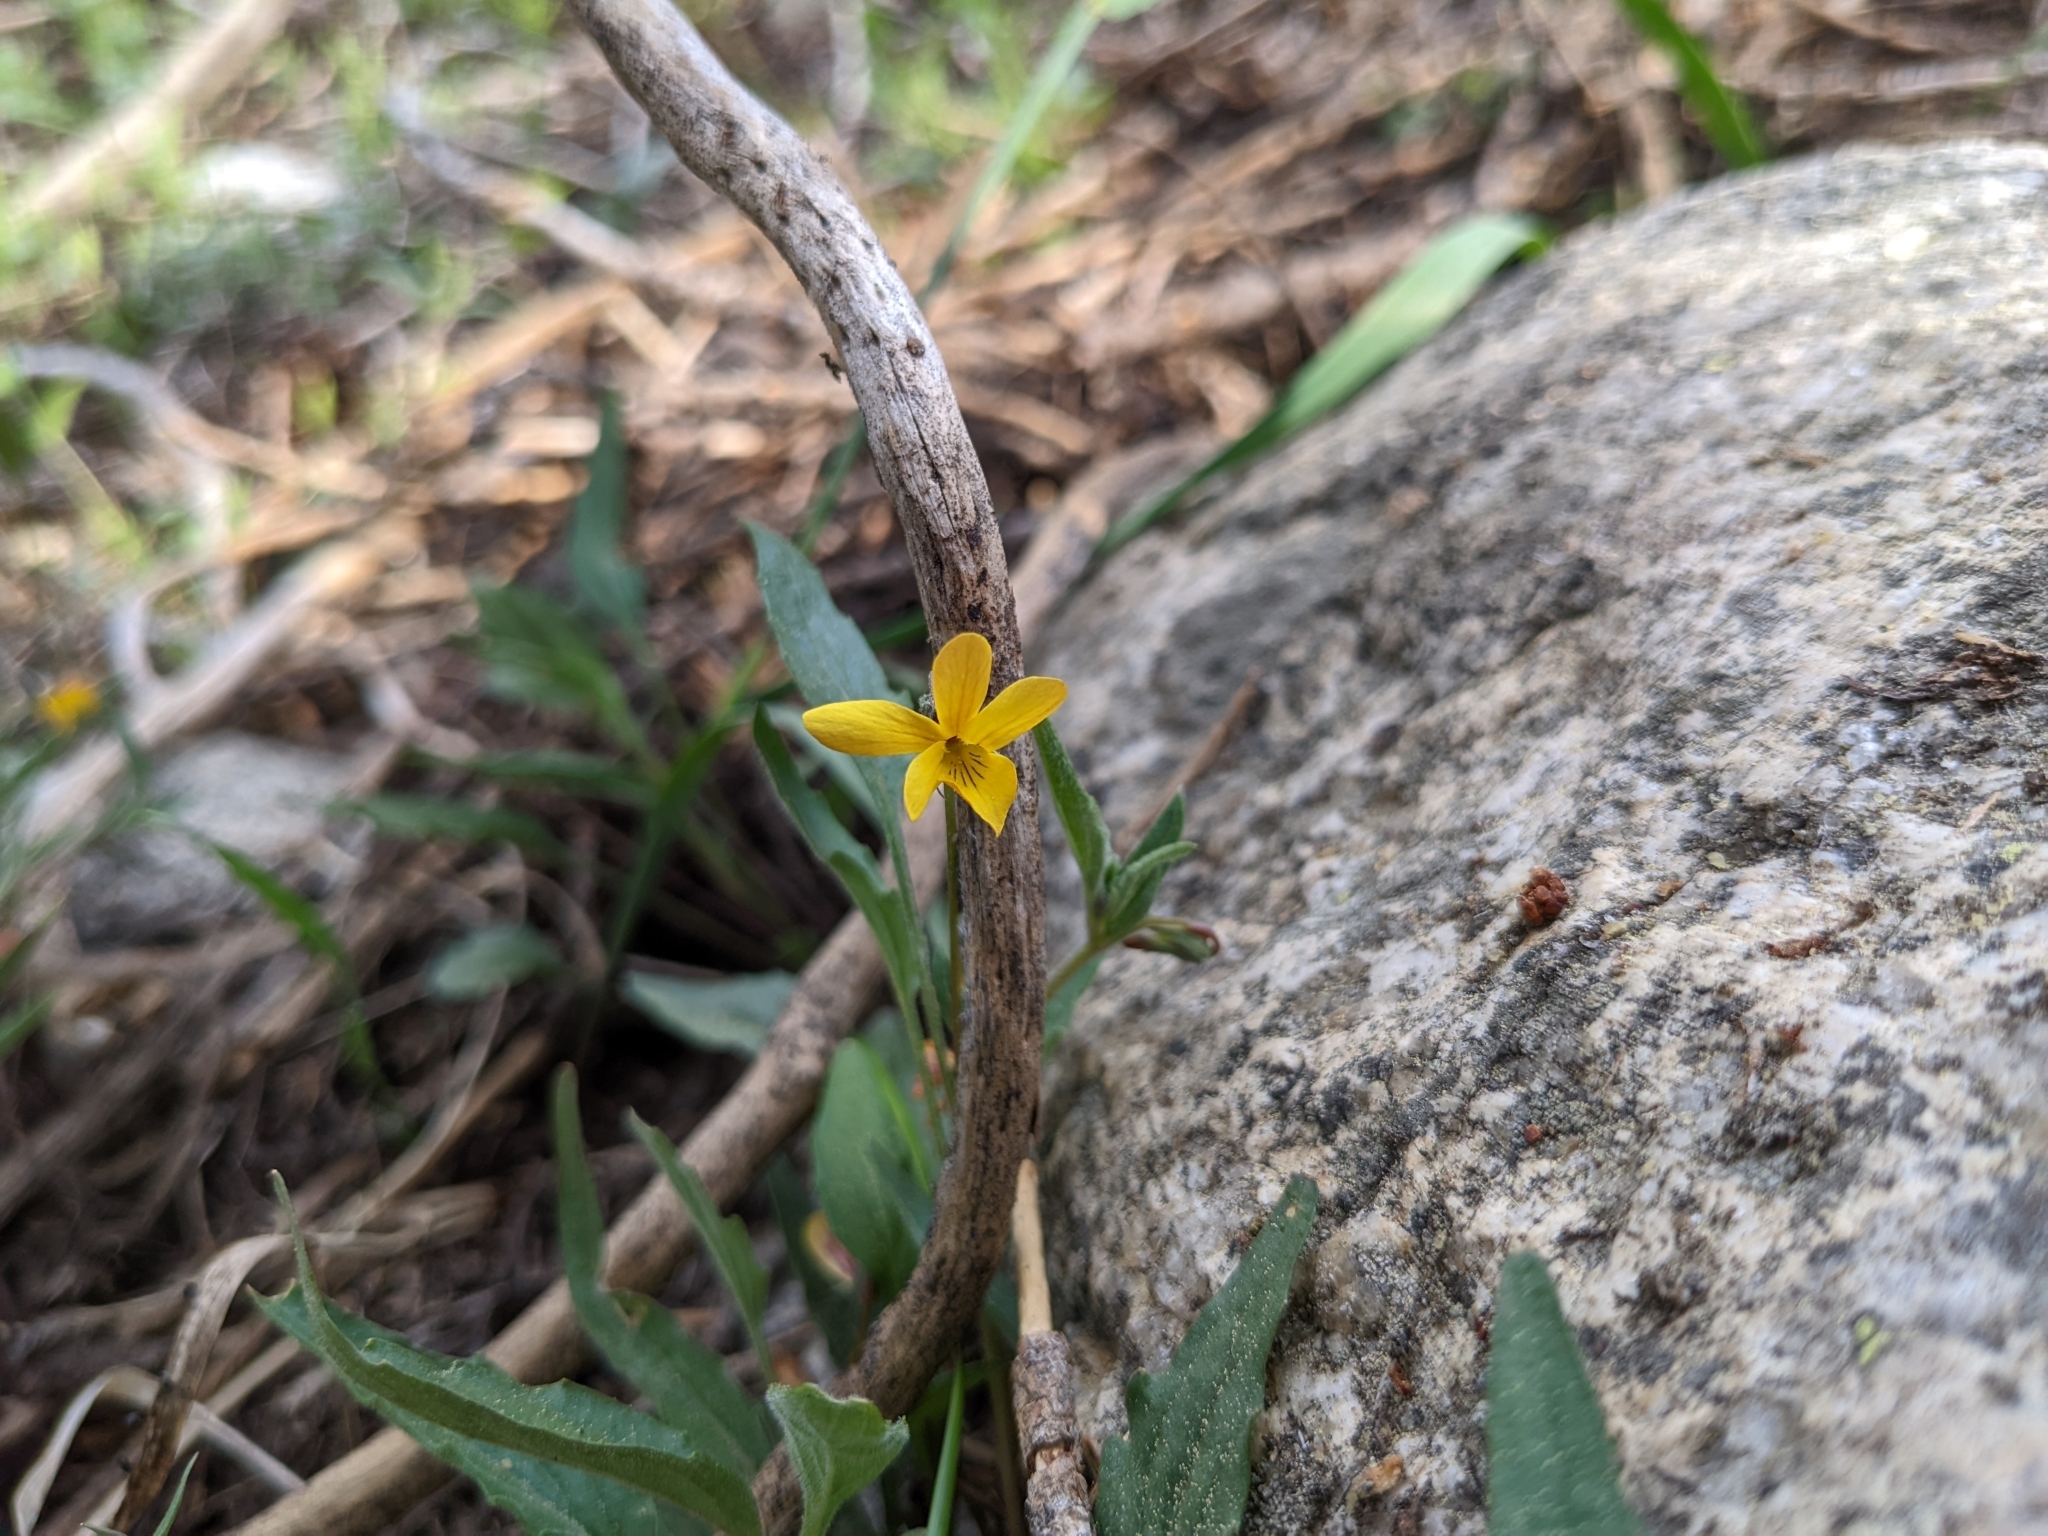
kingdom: Plantae
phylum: Tracheophyta
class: Magnoliopsida
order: Malpighiales
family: Violaceae
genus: Viola
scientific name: Viola pinetorum
